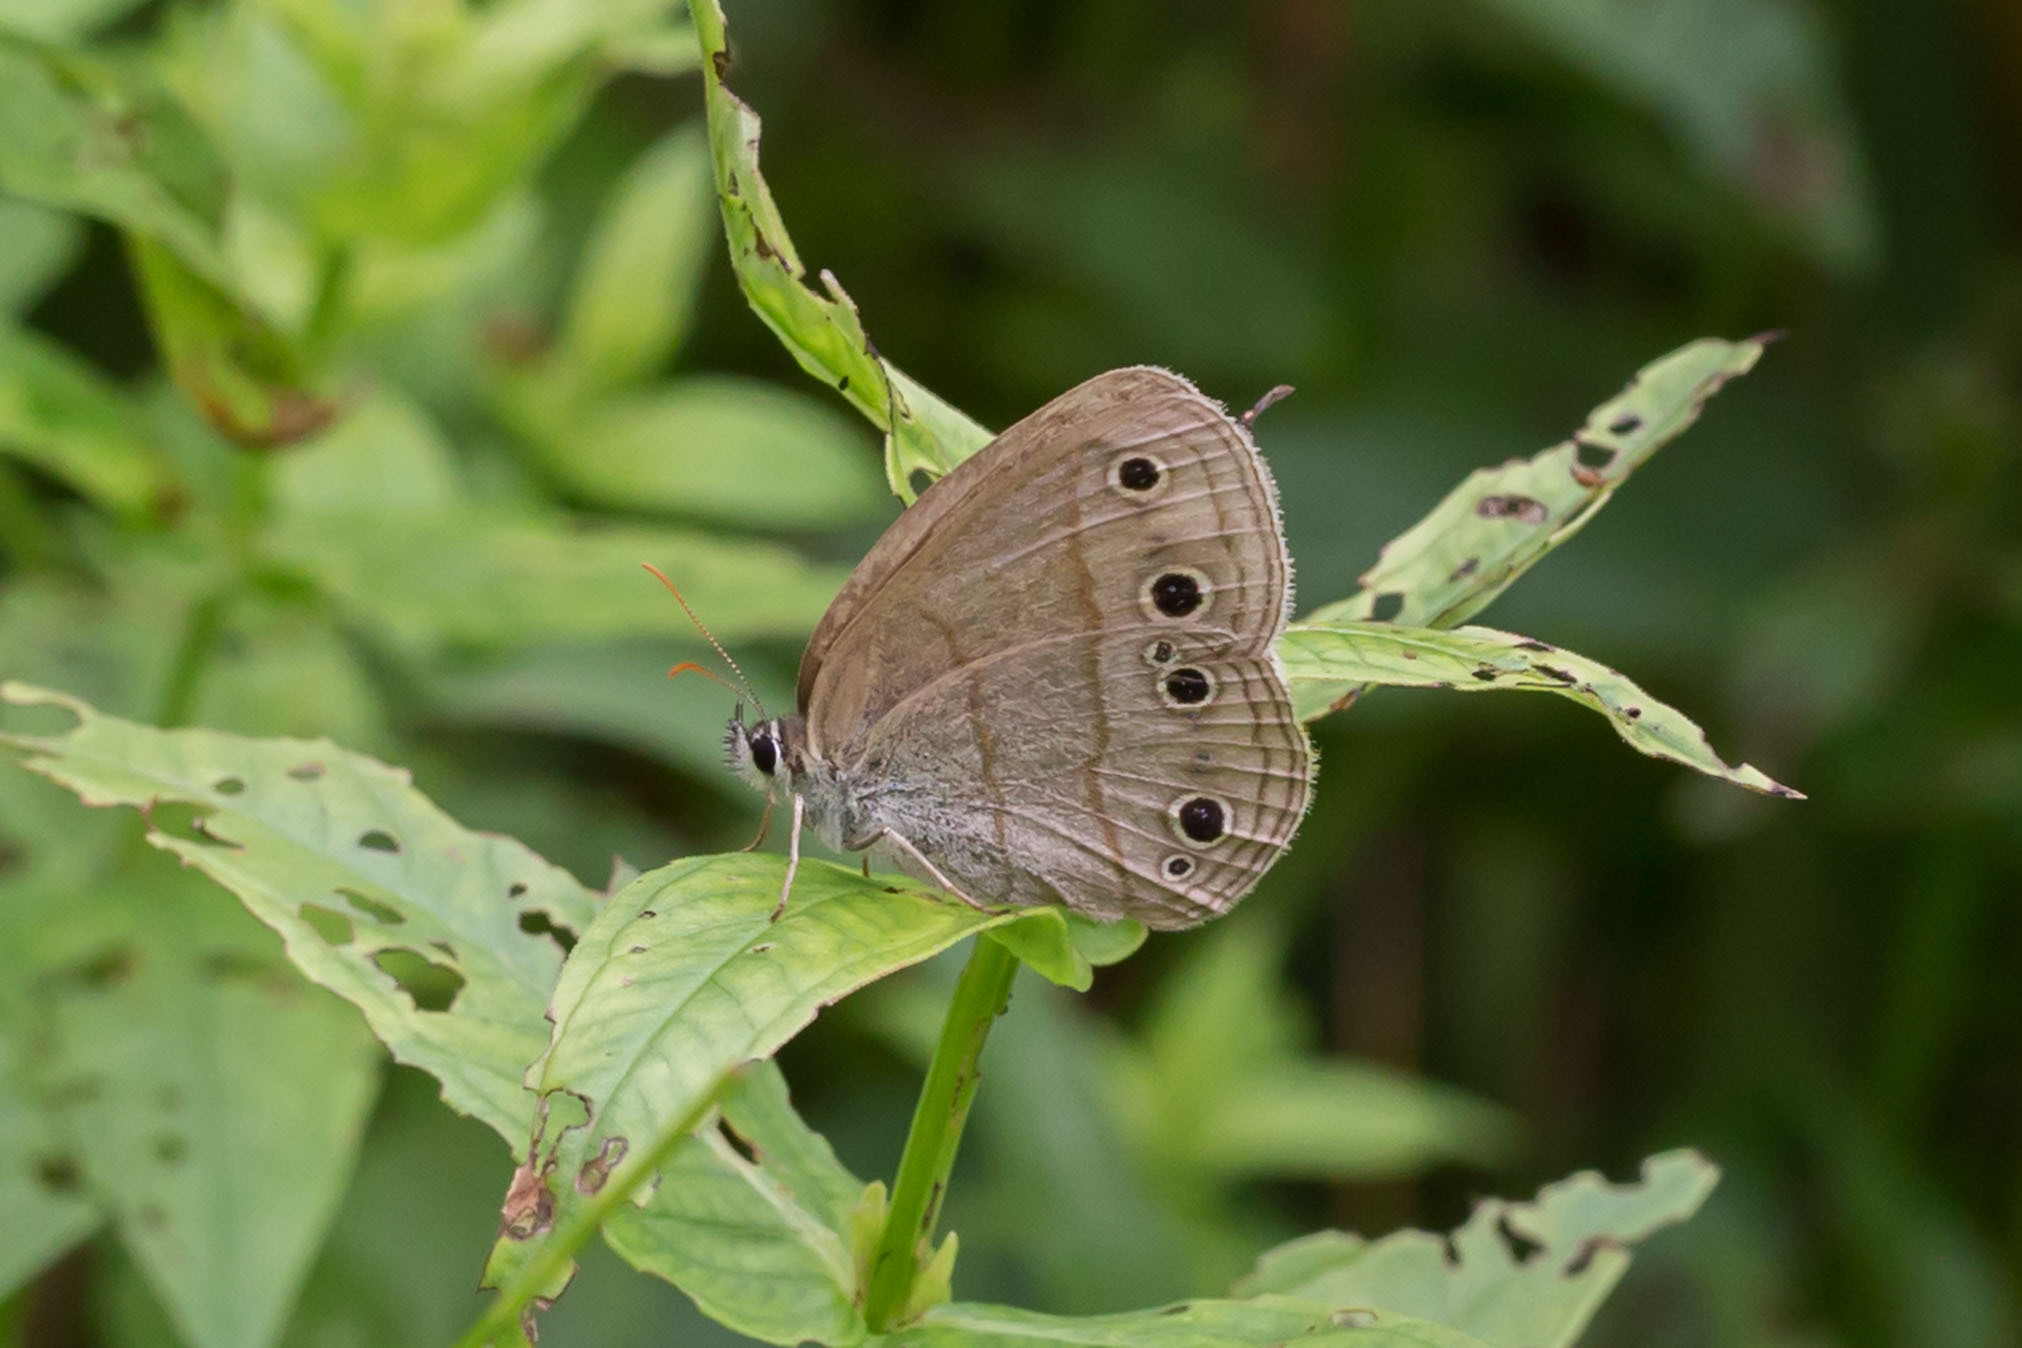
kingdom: Animalia
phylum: Arthropoda
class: Insecta
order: Lepidoptera
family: Nymphalidae
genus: Euptychia
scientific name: Euptychia cymela
